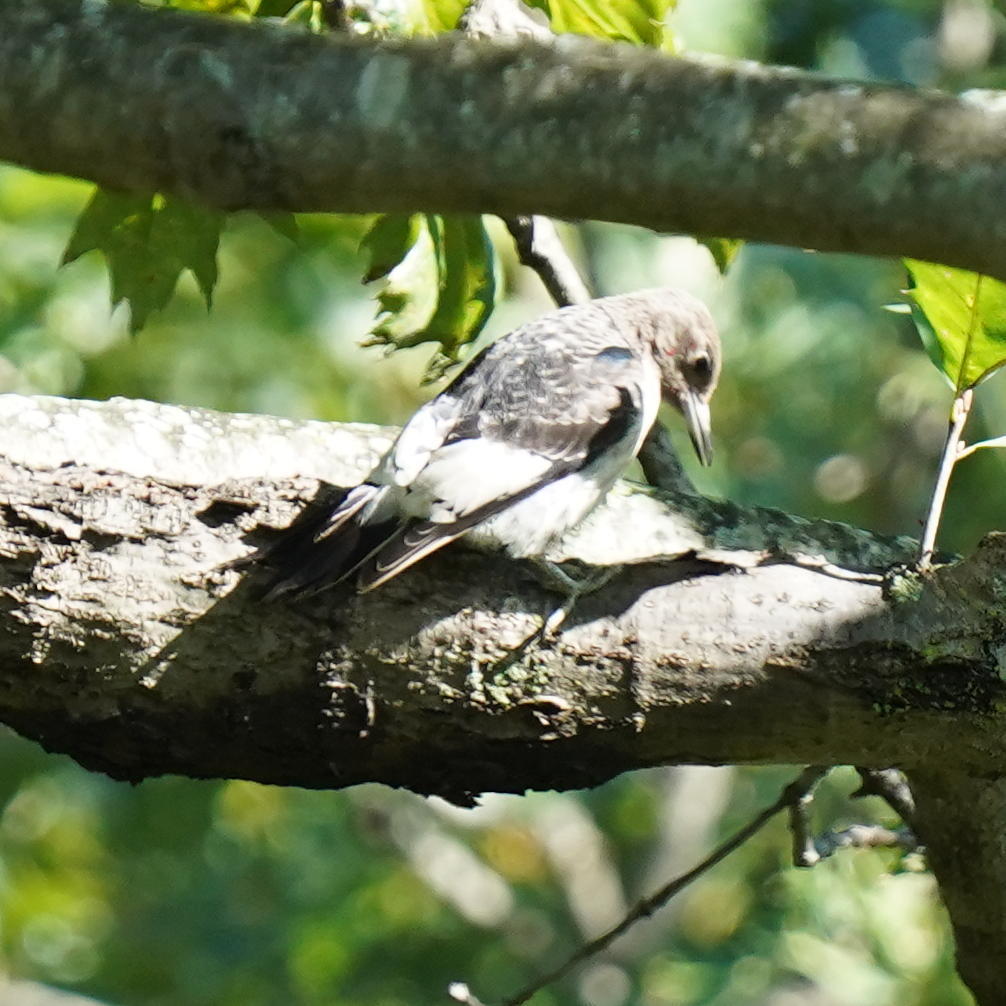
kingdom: Animalia
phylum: Chordata
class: Aves
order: Piciformes
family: Picidae
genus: Melanerpes
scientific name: Melanerpes erythrocephalus
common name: Red-headed woodpecker
